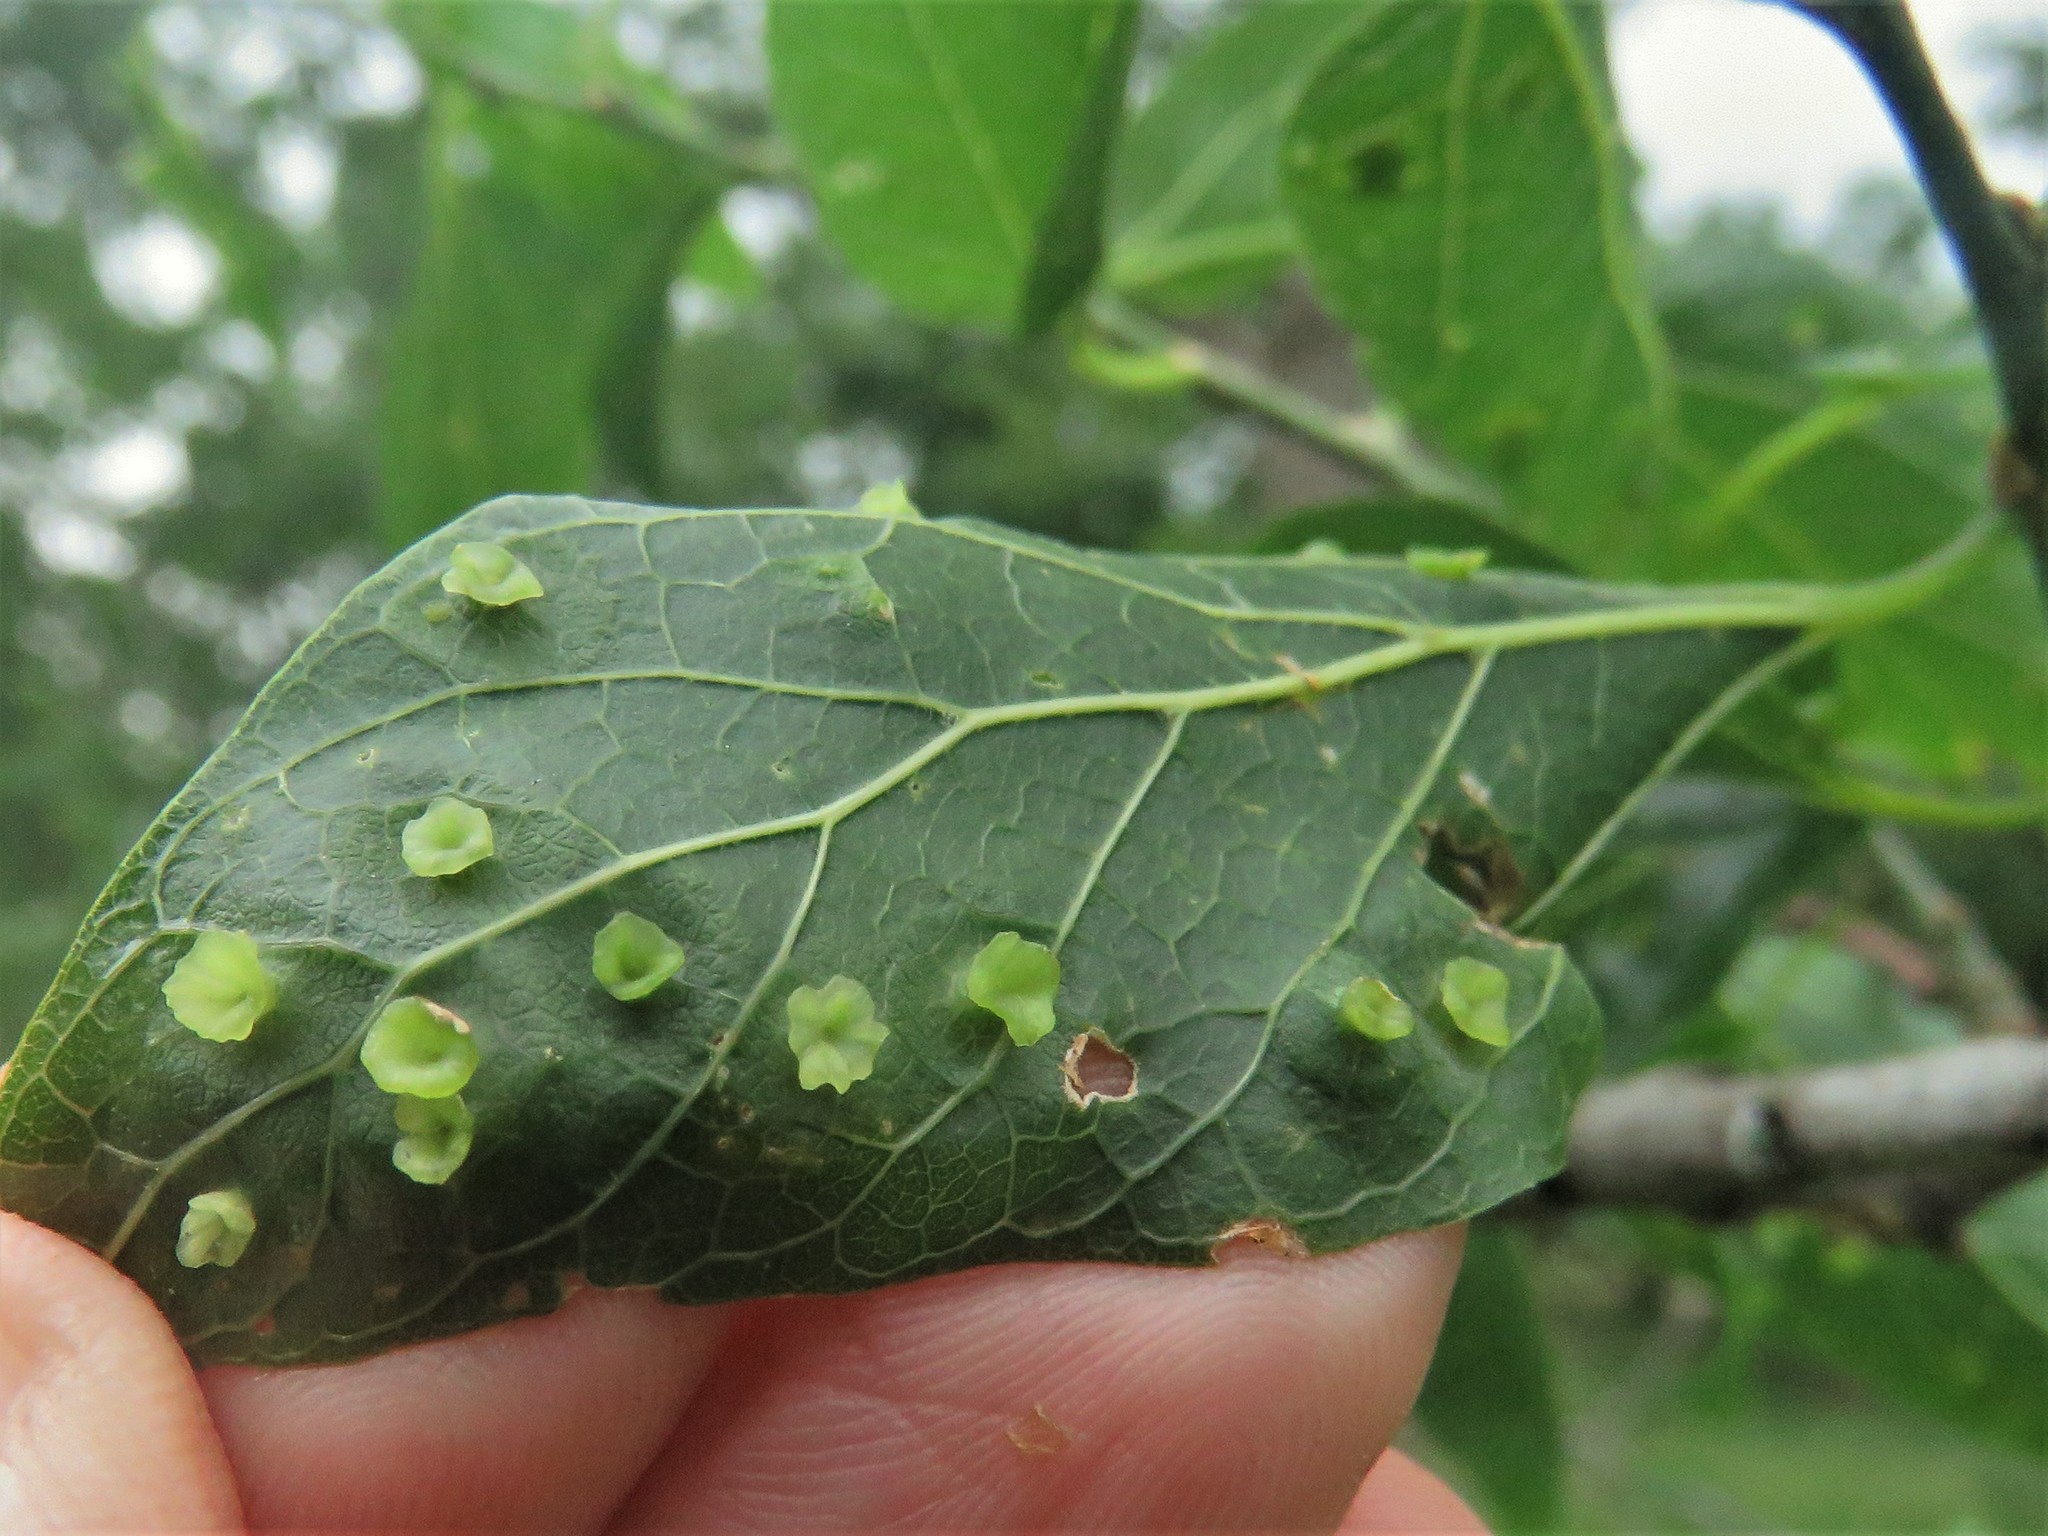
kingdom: Animalia
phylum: Arthropoda
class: Insecta
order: Hemiptera
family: Aphalaridae
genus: Pachypsylla
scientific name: Pachypsylla celtidisasterisca
